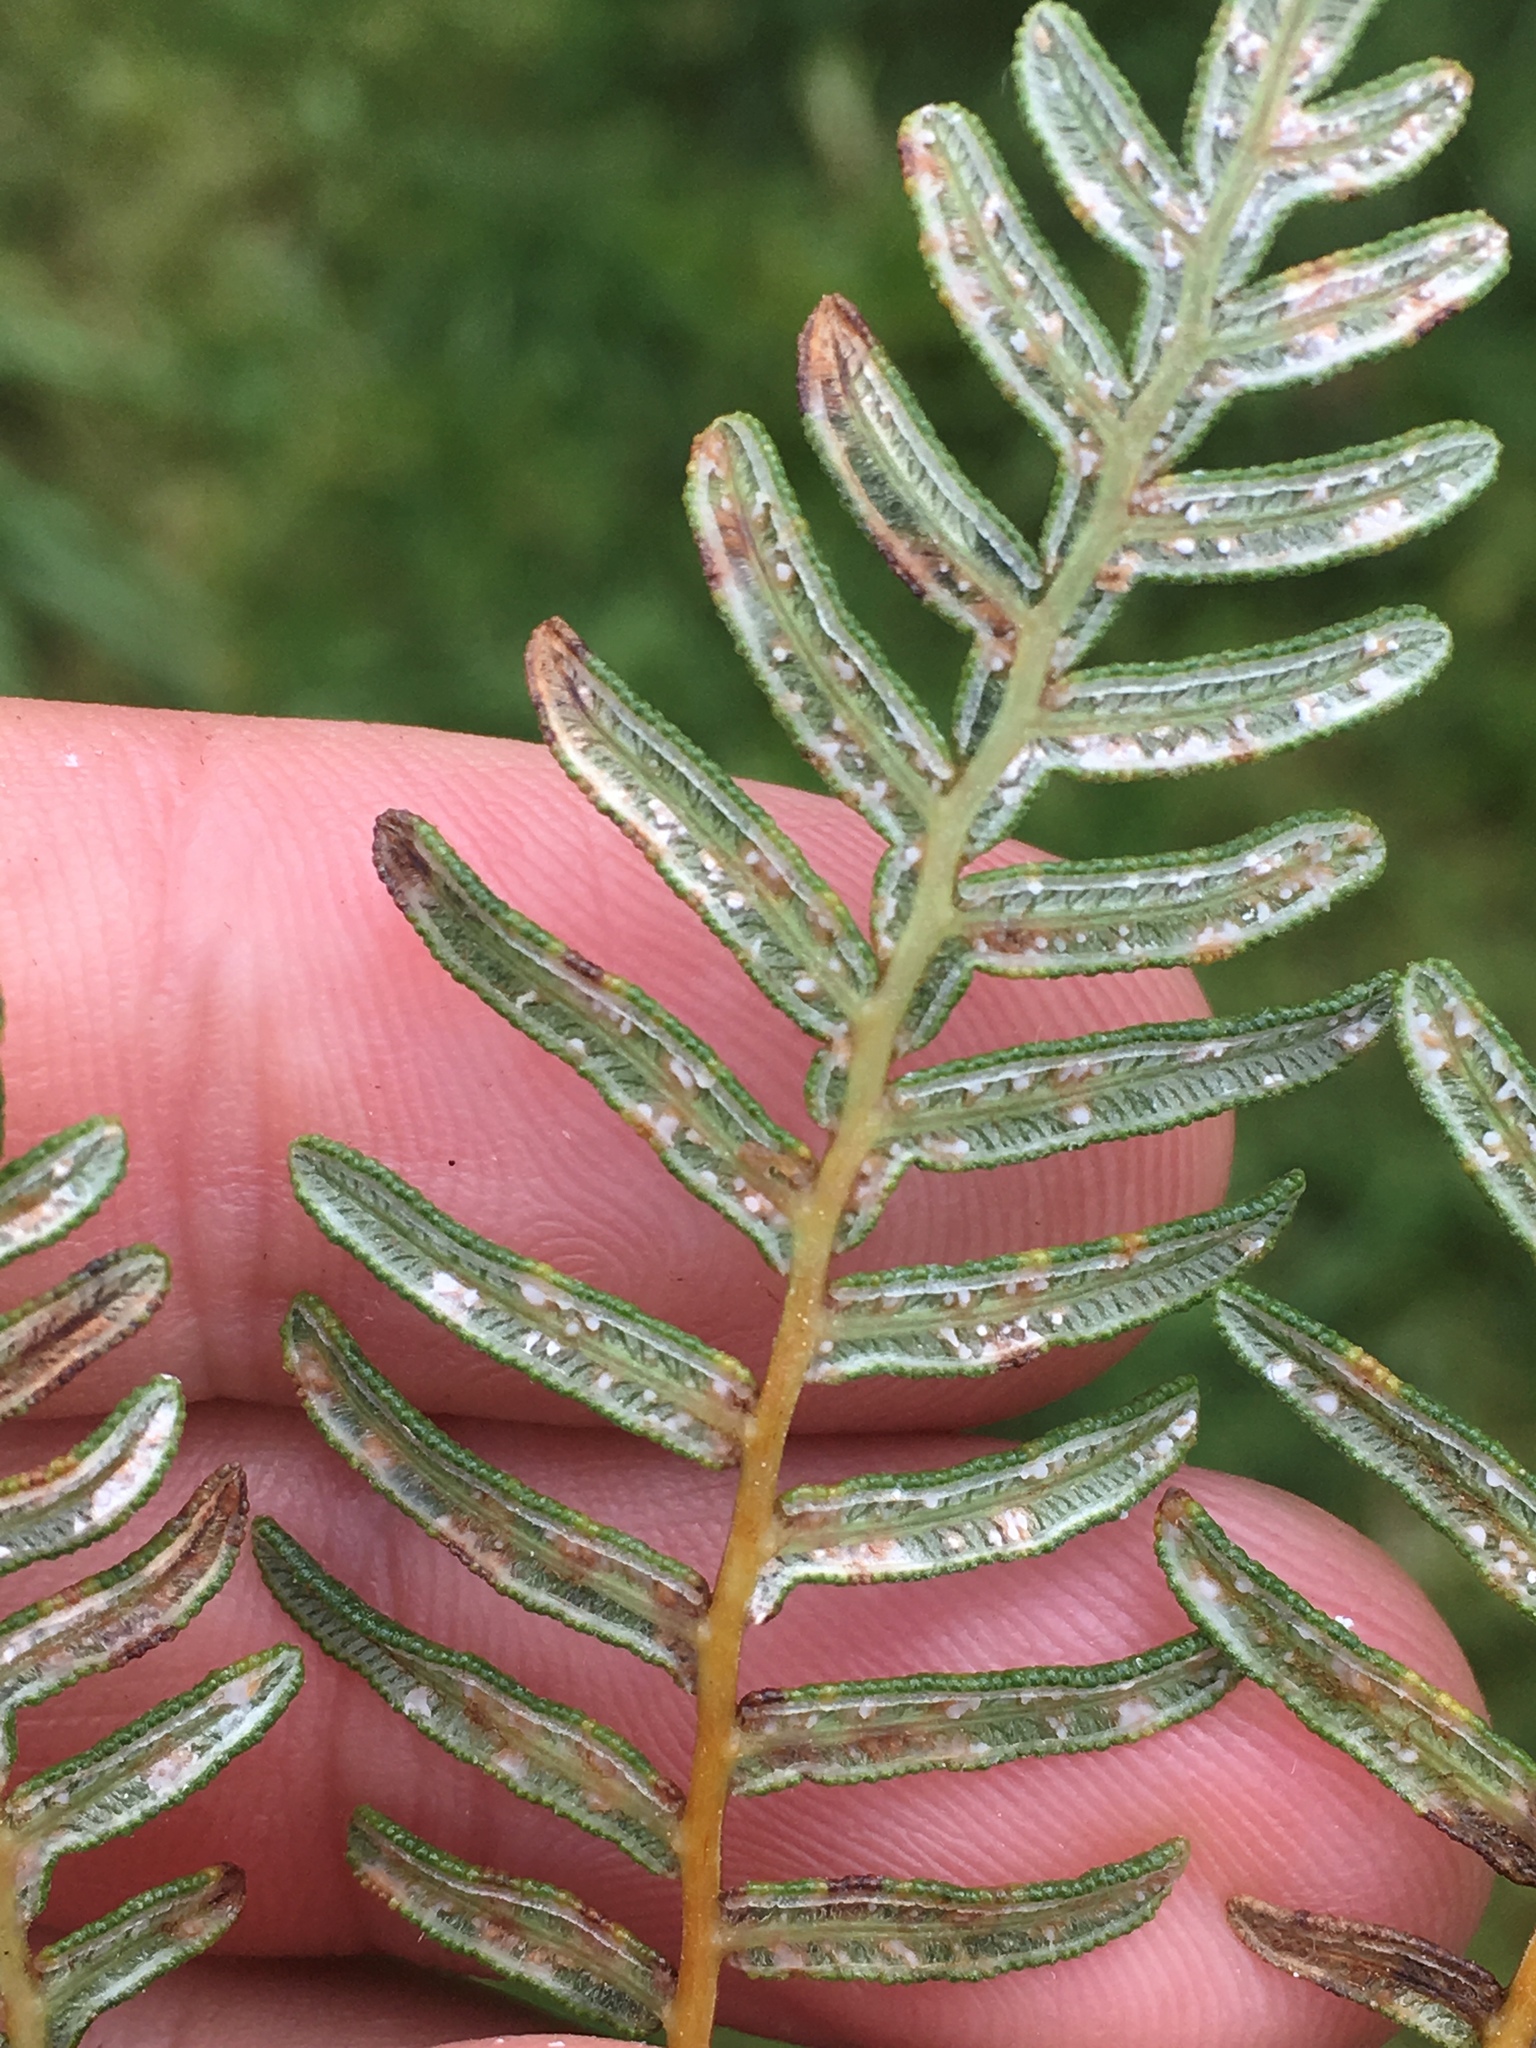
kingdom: Plantae
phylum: Tracheophyta
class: Polypodiopsida
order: Polypodiales
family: Dennstaedtiaceae
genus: Pteridium
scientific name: Pteridium esculentum
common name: Bracken fern
